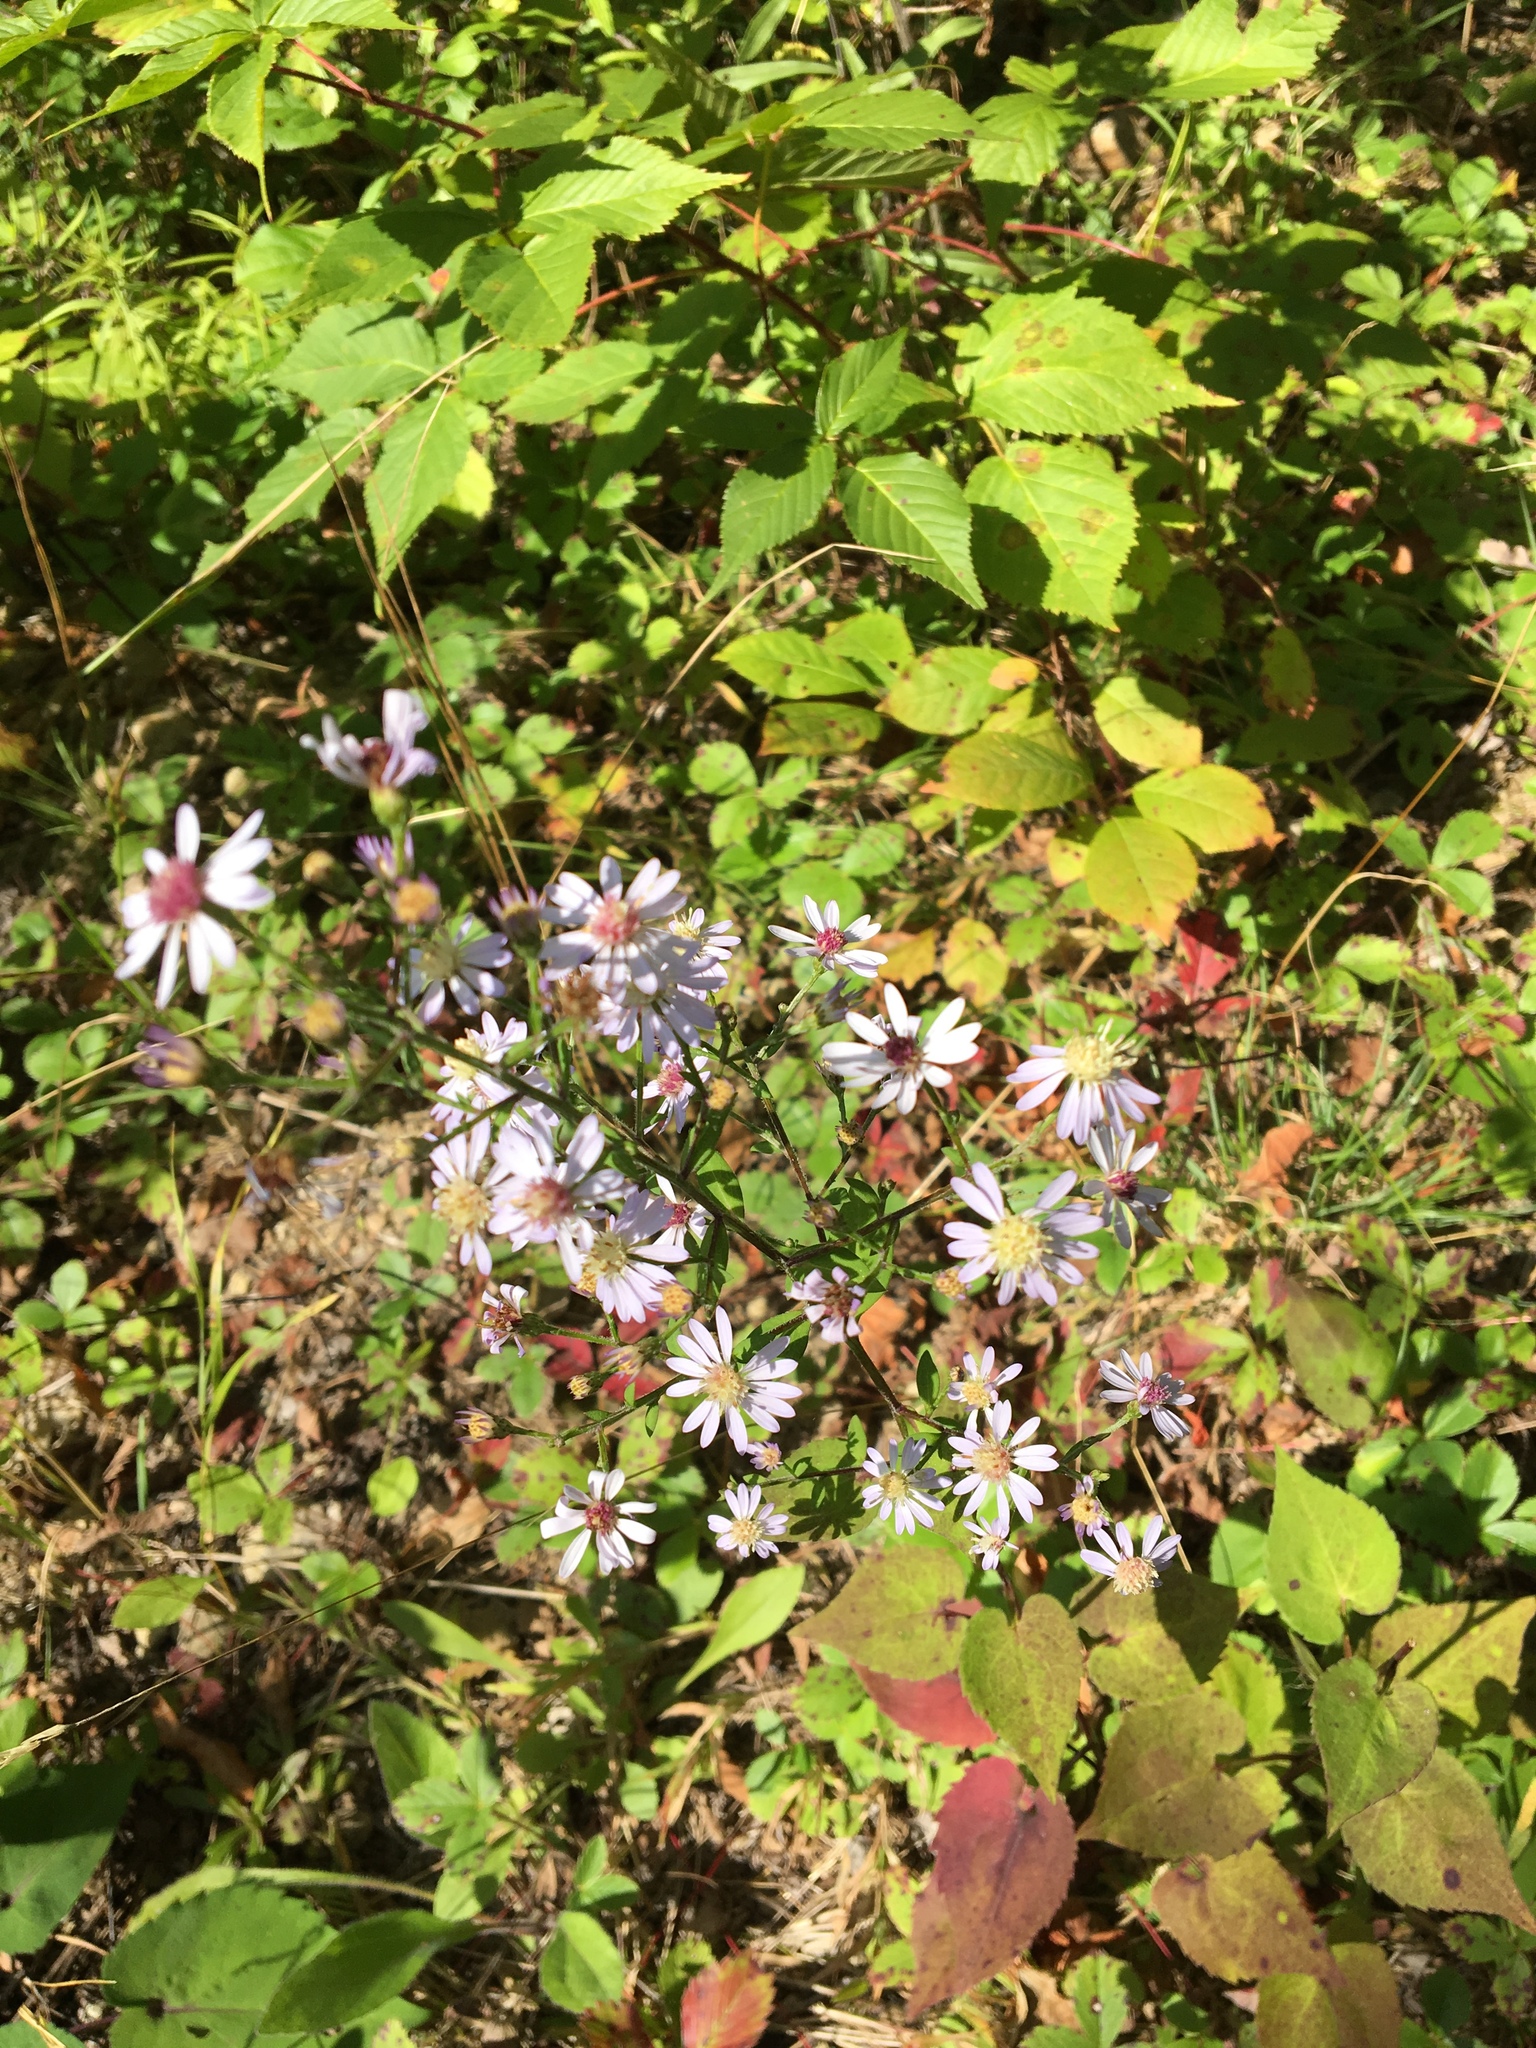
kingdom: Plantae
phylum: Tracheophyta
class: Magnoliopsida
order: Asterales
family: Asteraceae
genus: Symphyotrichum
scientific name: Symphyotrichum cordifolium
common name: Beeweed
